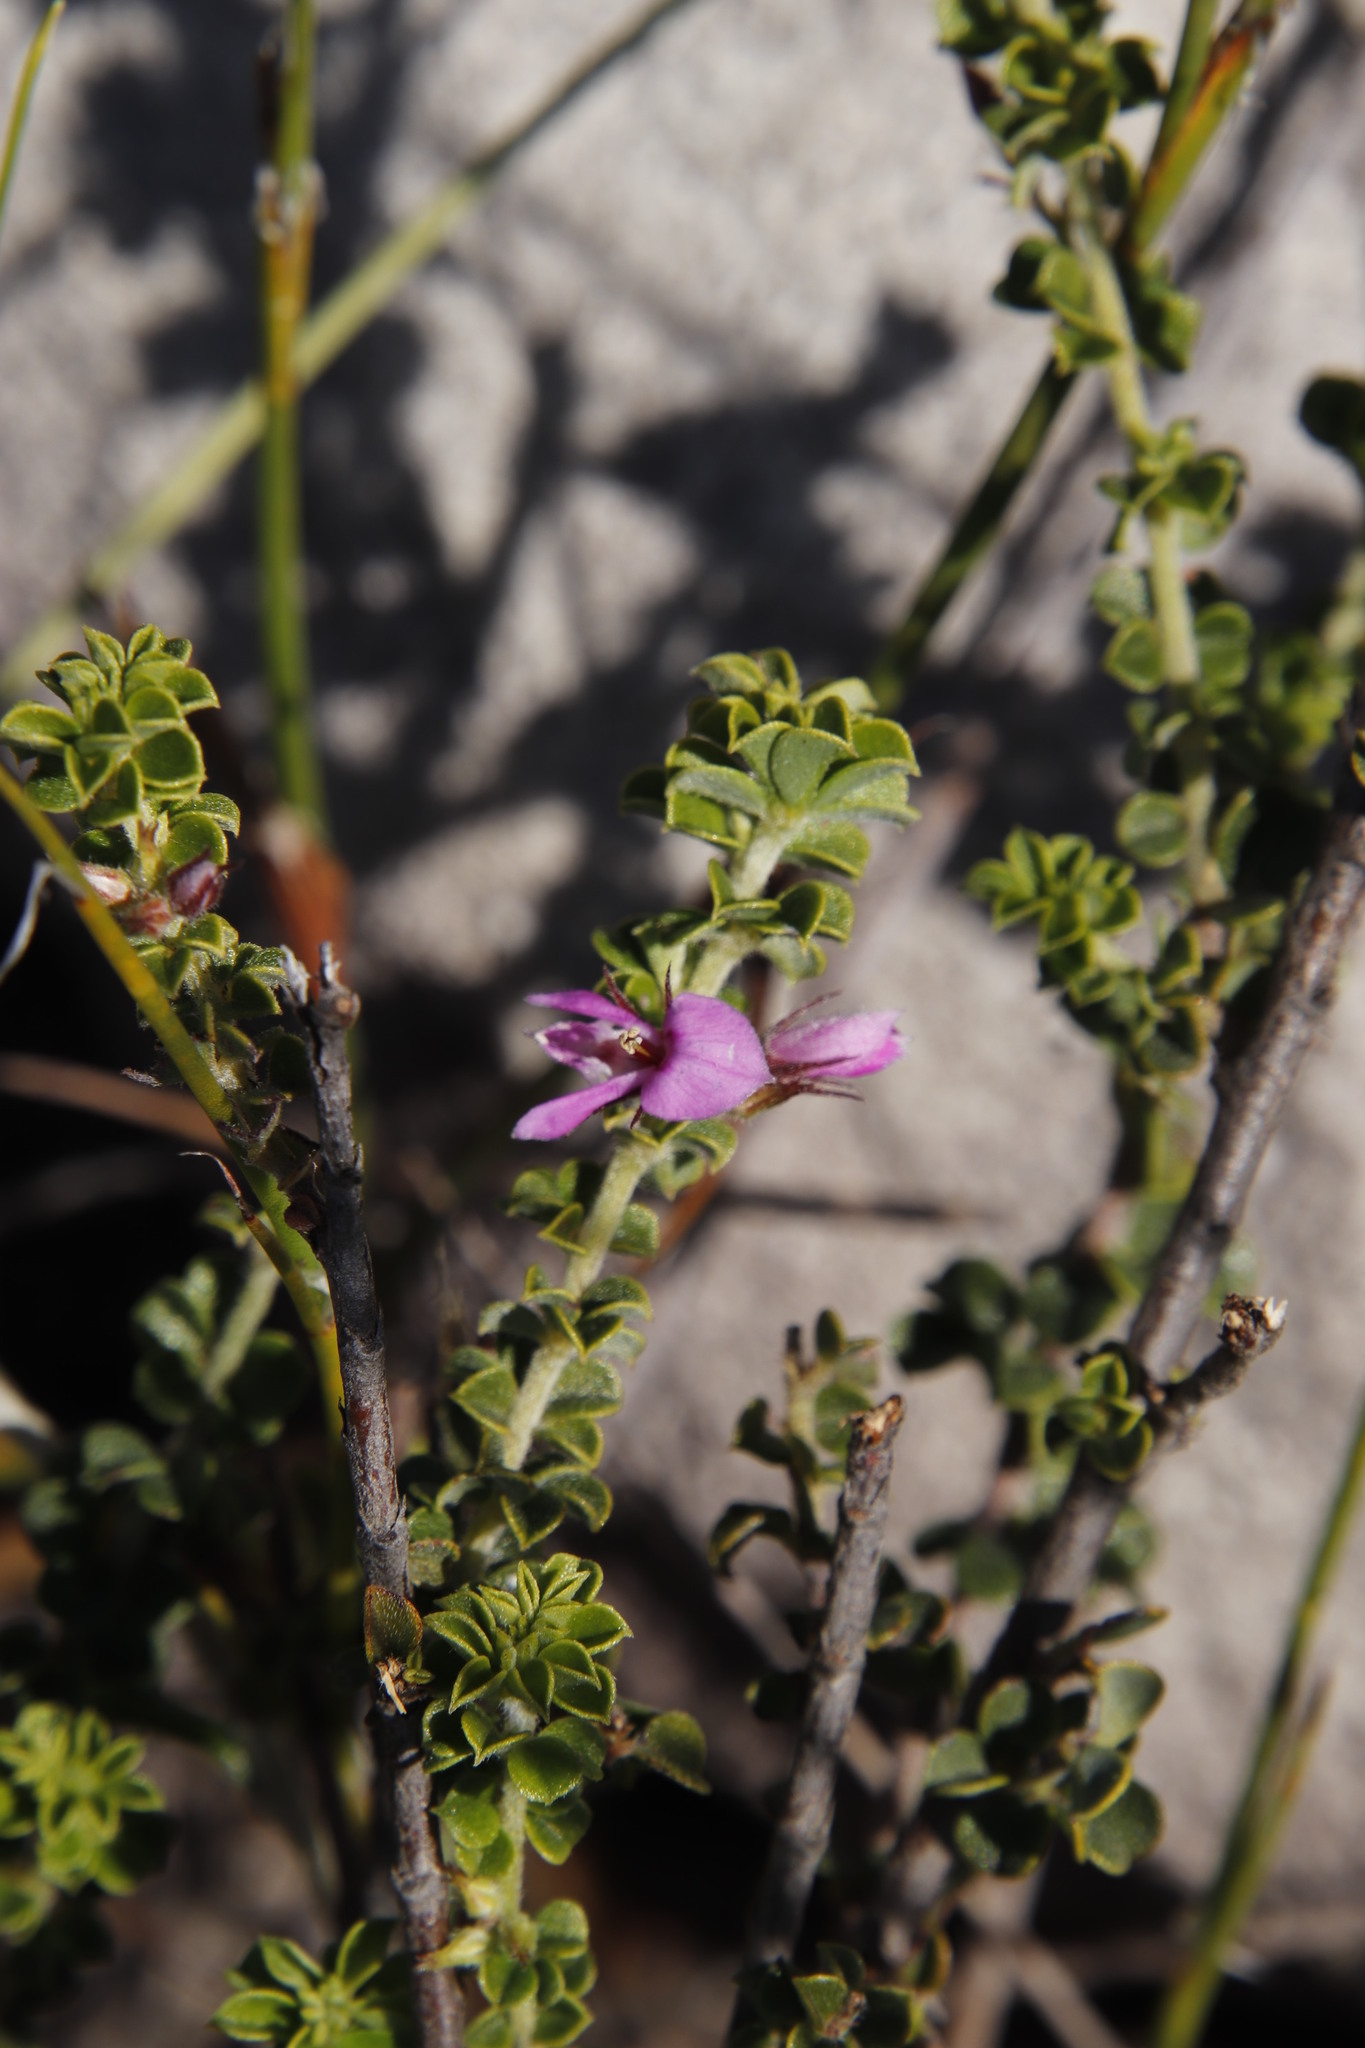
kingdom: Plantae
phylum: Tracheophyta
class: Magnoliopsida
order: Fabales
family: Fabaceae
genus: Indigofera
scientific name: Indigofera candolleana
